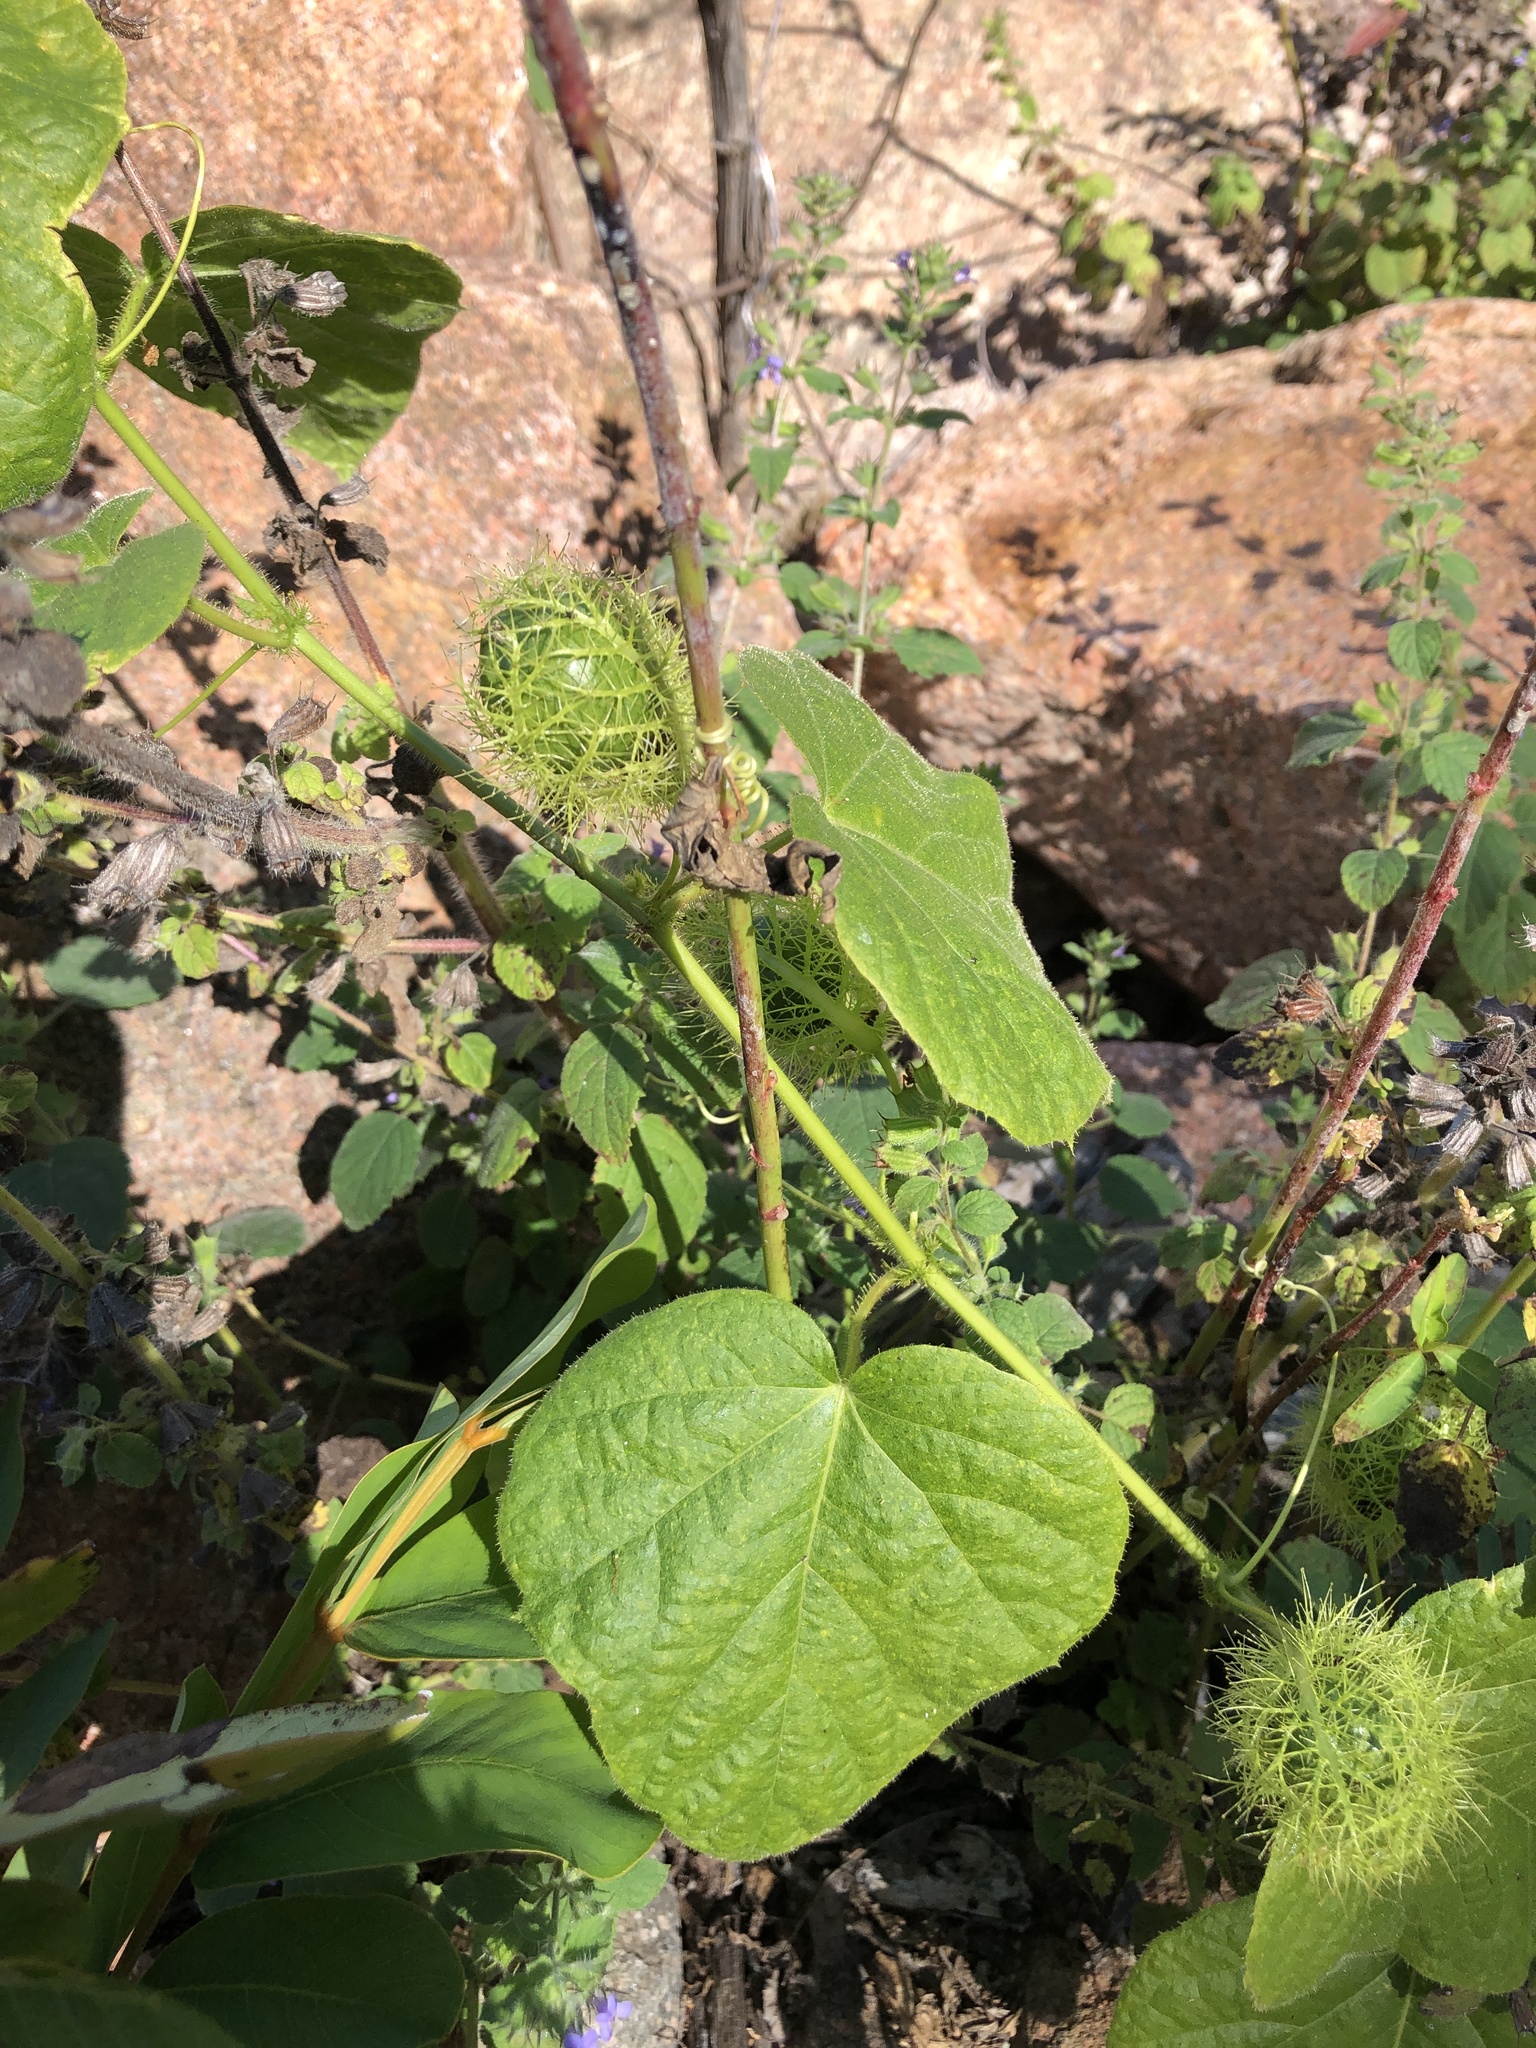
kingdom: Plantae
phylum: Tracheophyta
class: Magnoliopsida
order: Malpighiales
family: Passifloraceae
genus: Passiflora
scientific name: Passiflora foetida
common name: Fetid passionflower
